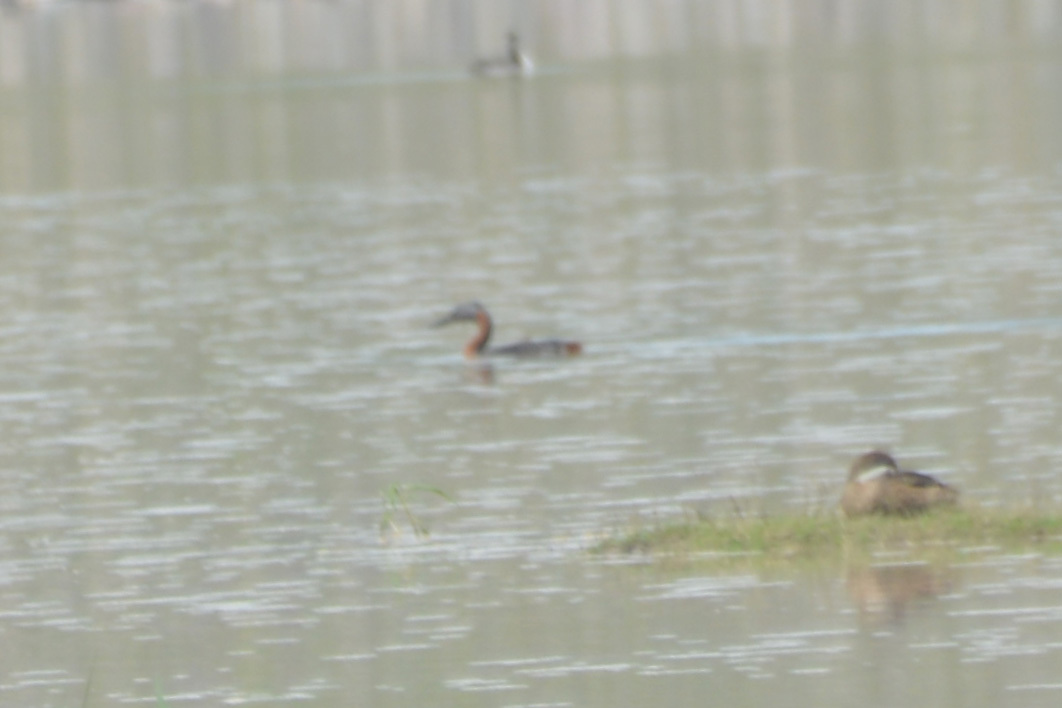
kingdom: Animalia
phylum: Chordata
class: Aves
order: Podicipediformes
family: Podicipedidae
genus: Podiceps
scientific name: Podiceps major
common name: Great grebe
